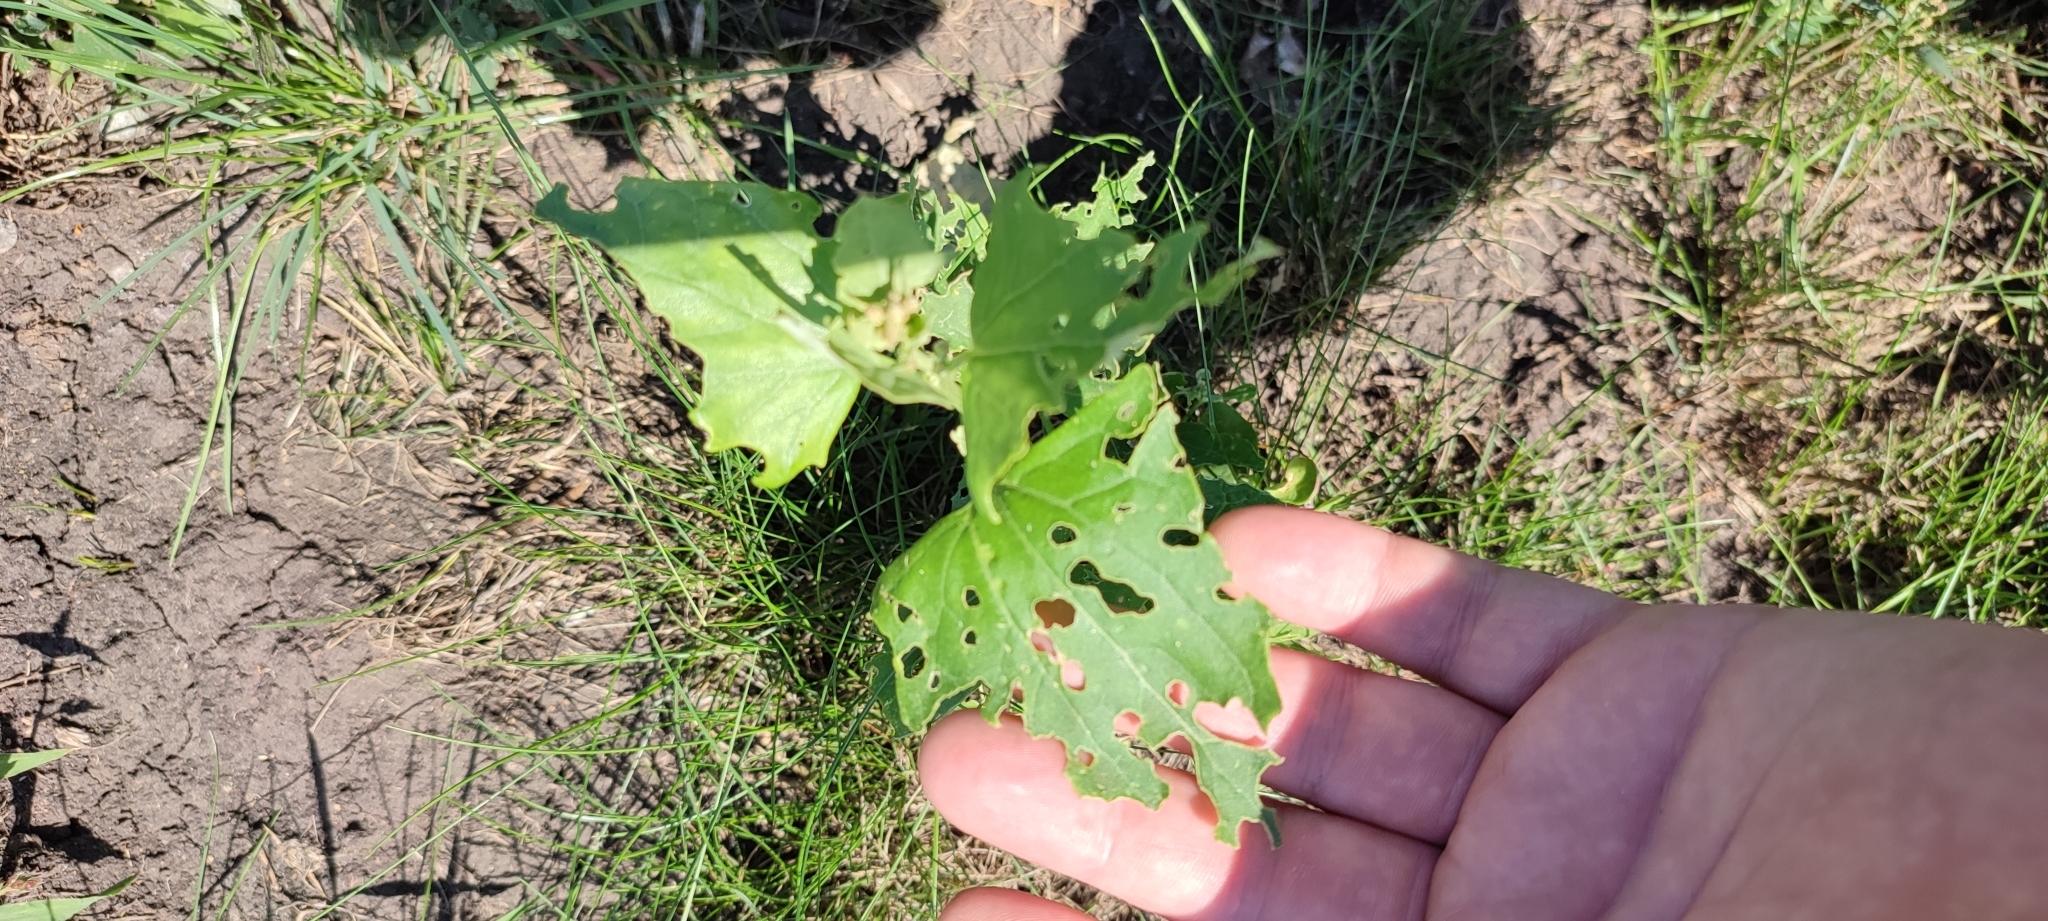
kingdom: Plantae
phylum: Tracheophyta
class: Magnoliopsida
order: Caryophyllales
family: Amaranthaceae
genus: Atriplex
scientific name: Atriplex sagittata
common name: Purple orache
